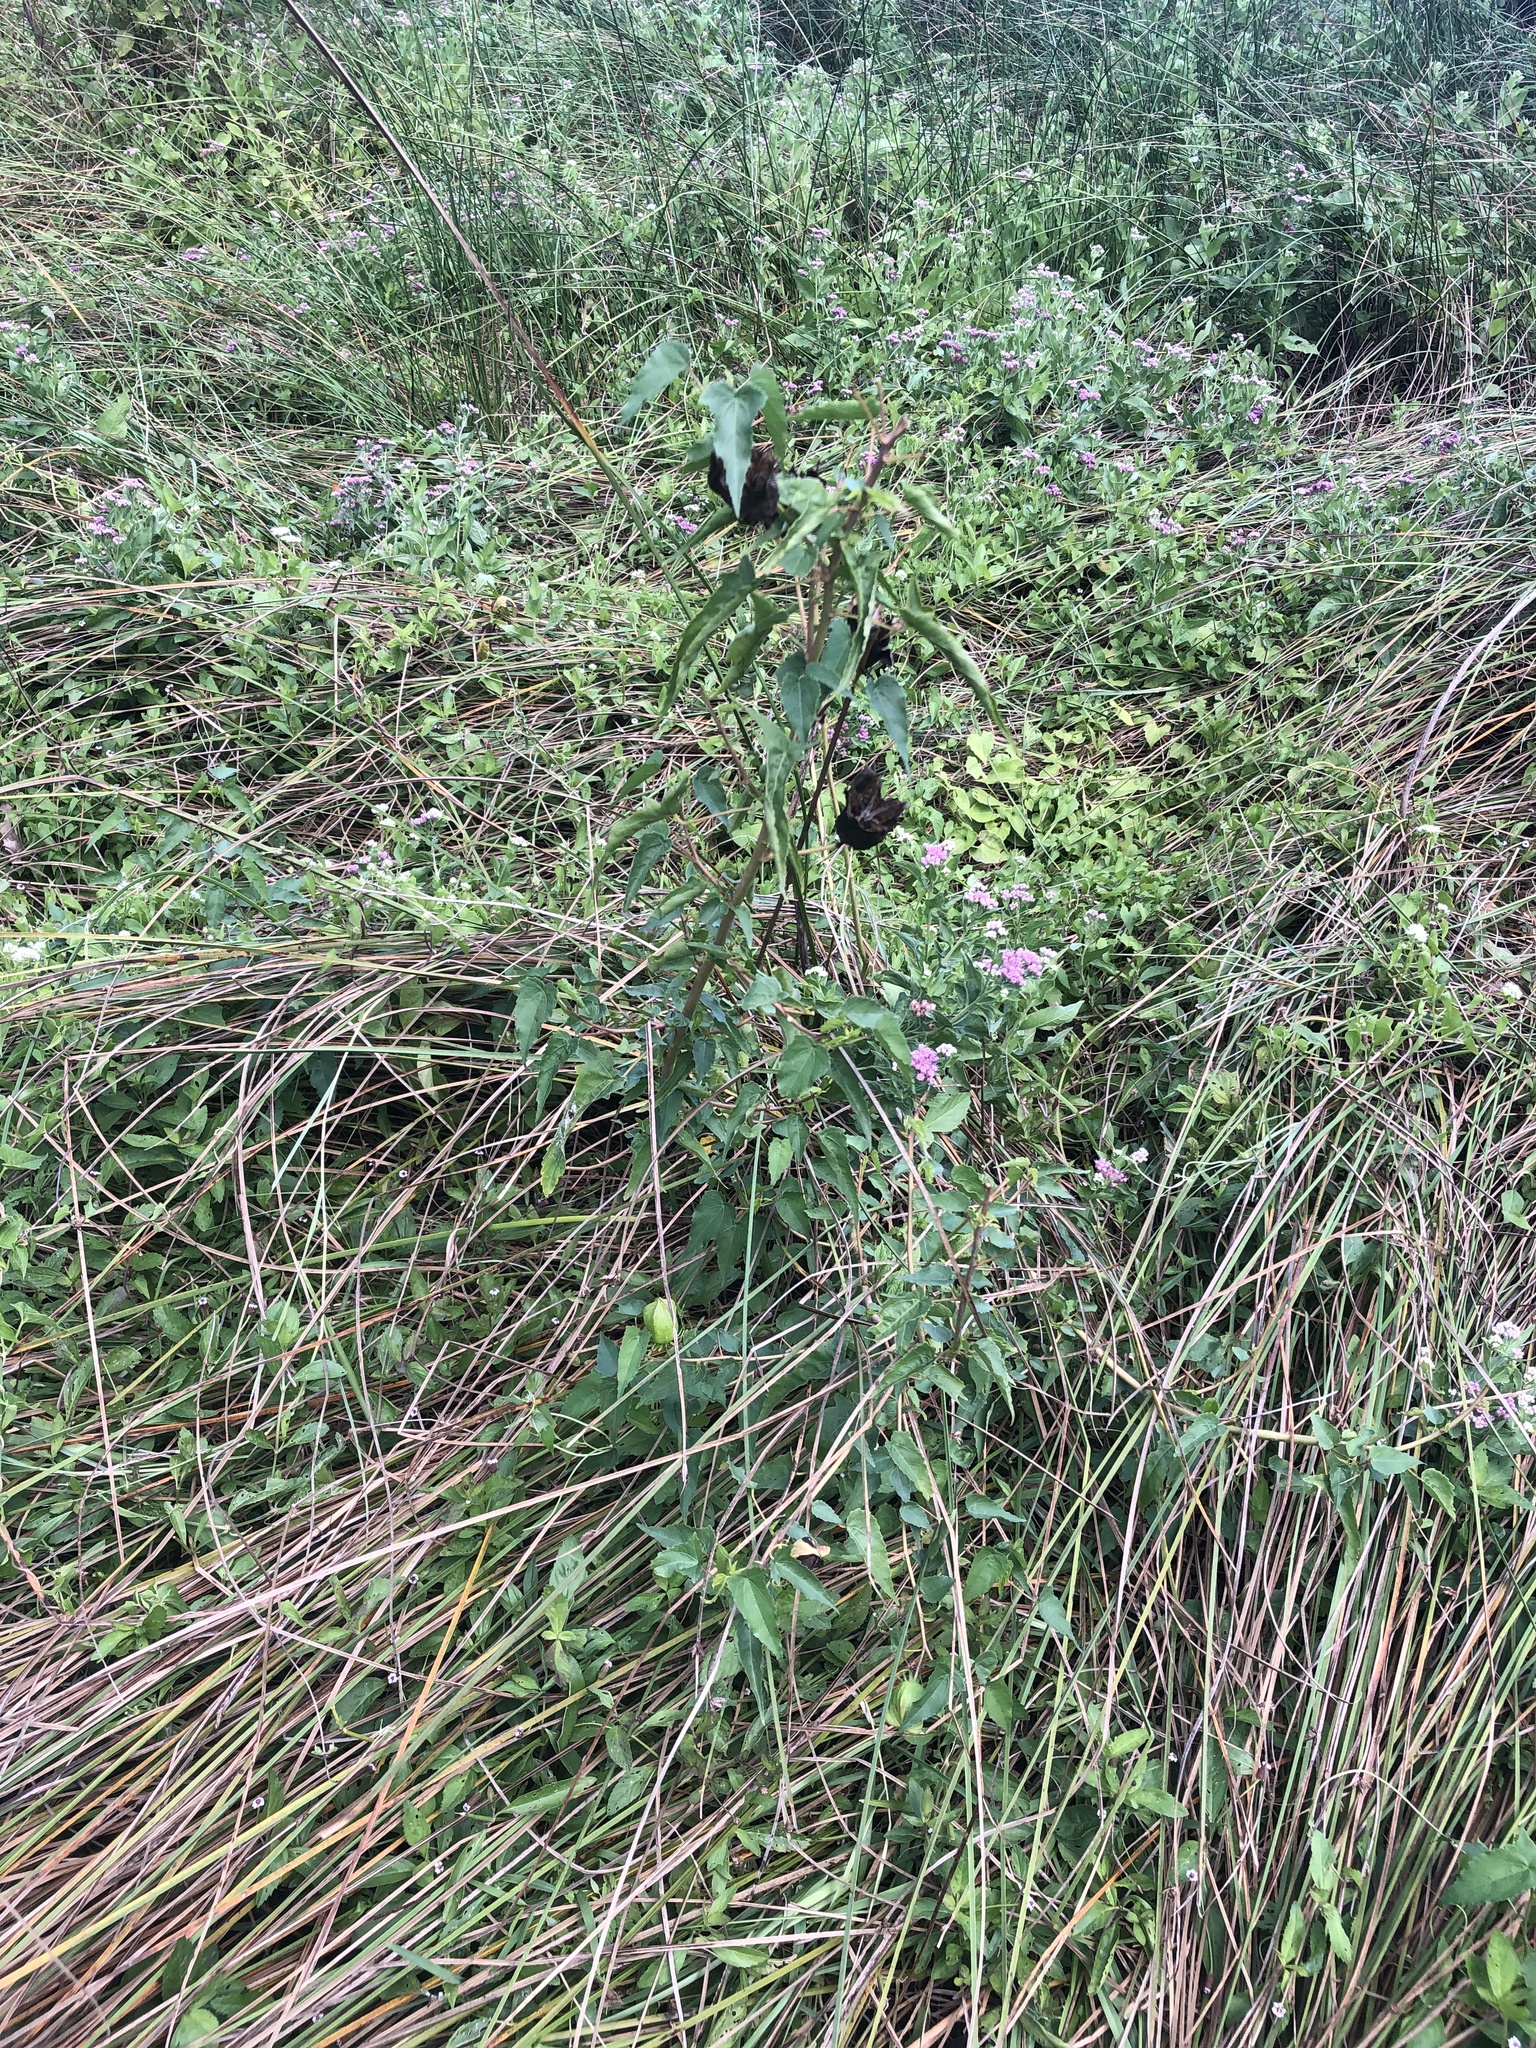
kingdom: Plantae
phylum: Tracheophyta
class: Magnoliopsida
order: Malvales
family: Malvaceae
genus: Hibiscus
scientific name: Hibiscus laevis
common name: Scarlet rose-mallow
